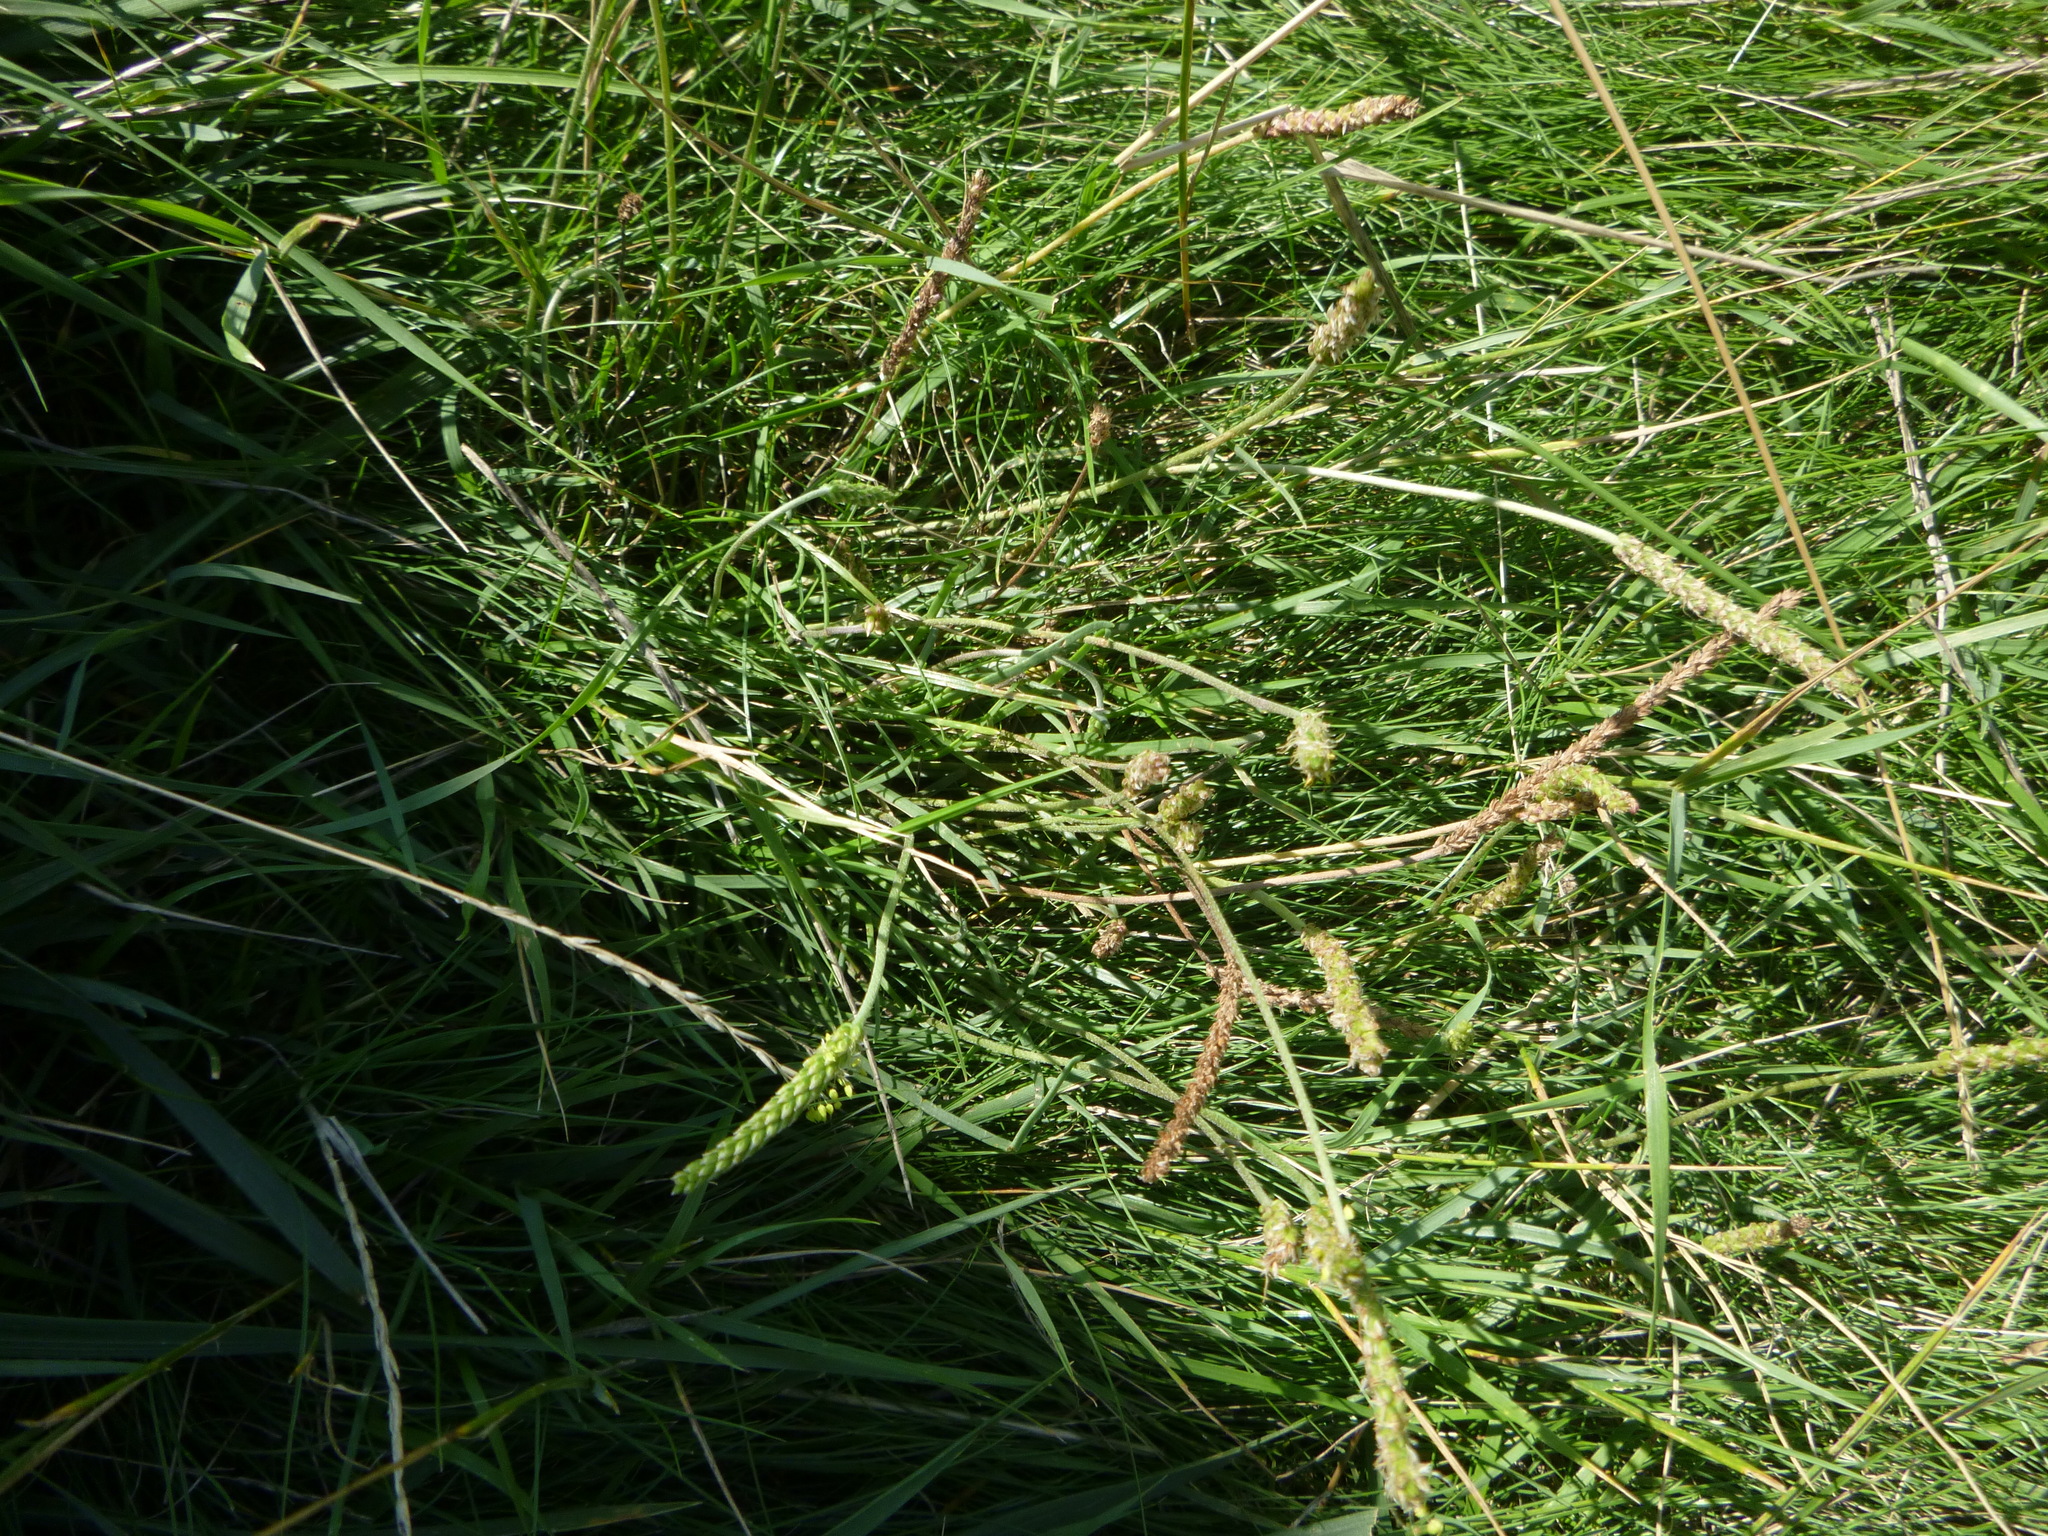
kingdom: Plantae
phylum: Tracheophyta
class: Magnoliopsida
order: Lamiales
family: Plantaginaceae
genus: Plantago
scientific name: Plantago maritima
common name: Sea plantain
